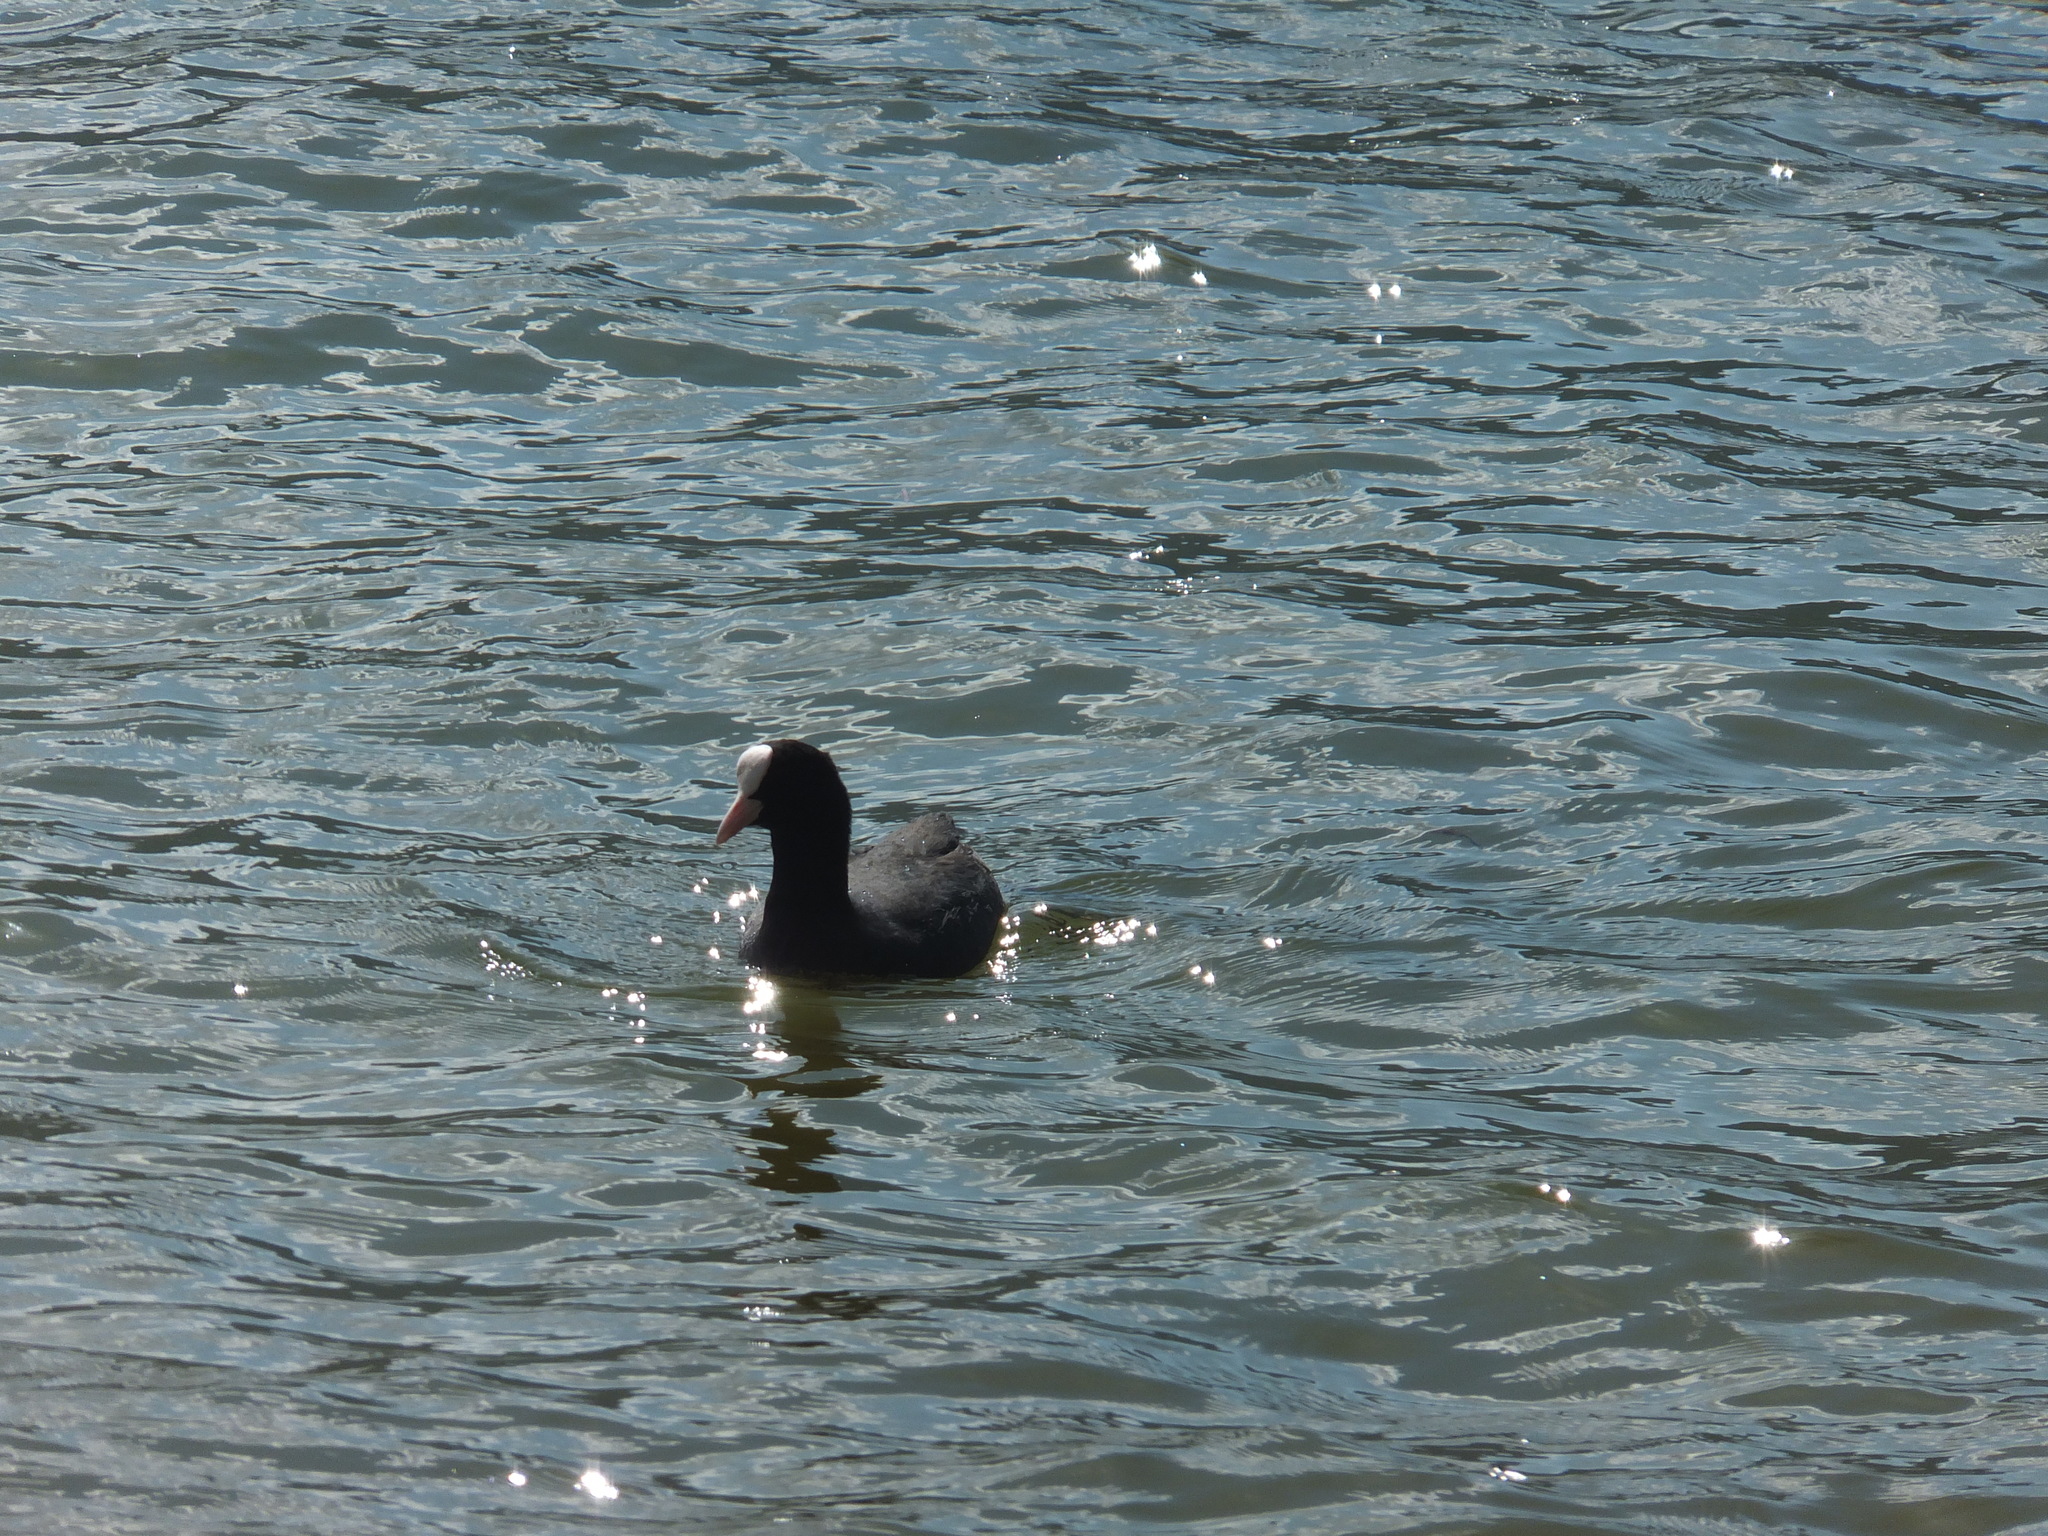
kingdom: Animalia
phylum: Chordata
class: Aves
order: Gruiformes
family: Rallidae
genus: Fulica
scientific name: Fulica atra
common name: Eurasian coot
